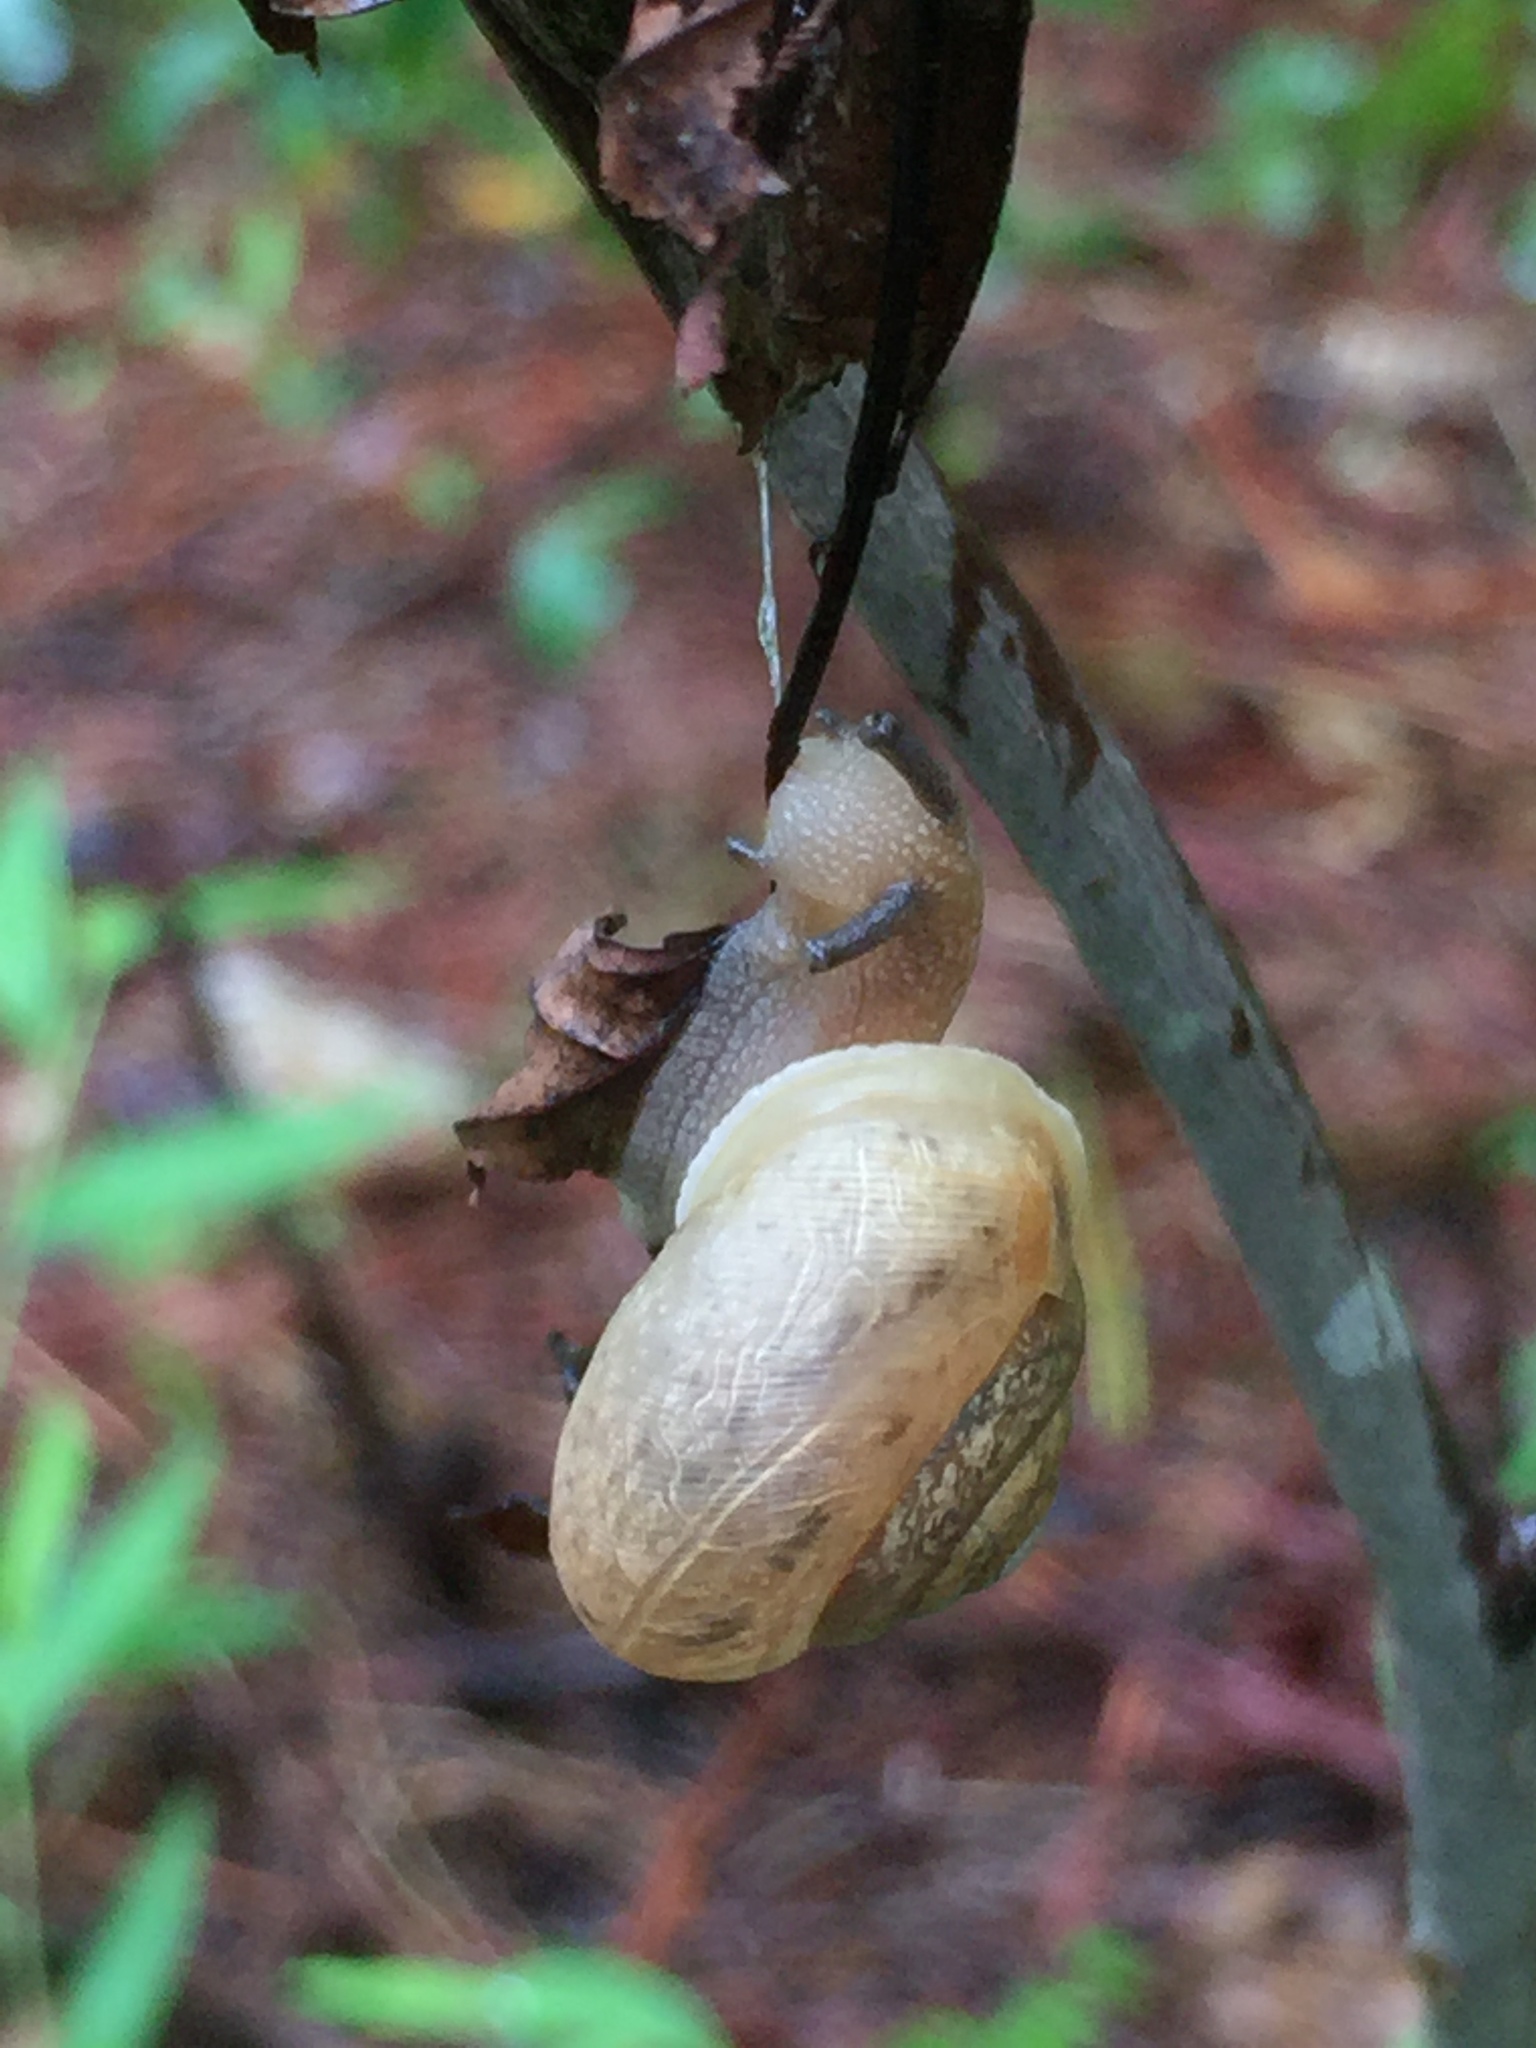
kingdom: Animalia
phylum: Mollusca
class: Gastropoda
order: Stylommatophora
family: Polygyridae
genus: Neohelix
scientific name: Neohelix albolabris
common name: Eastern whitelip
